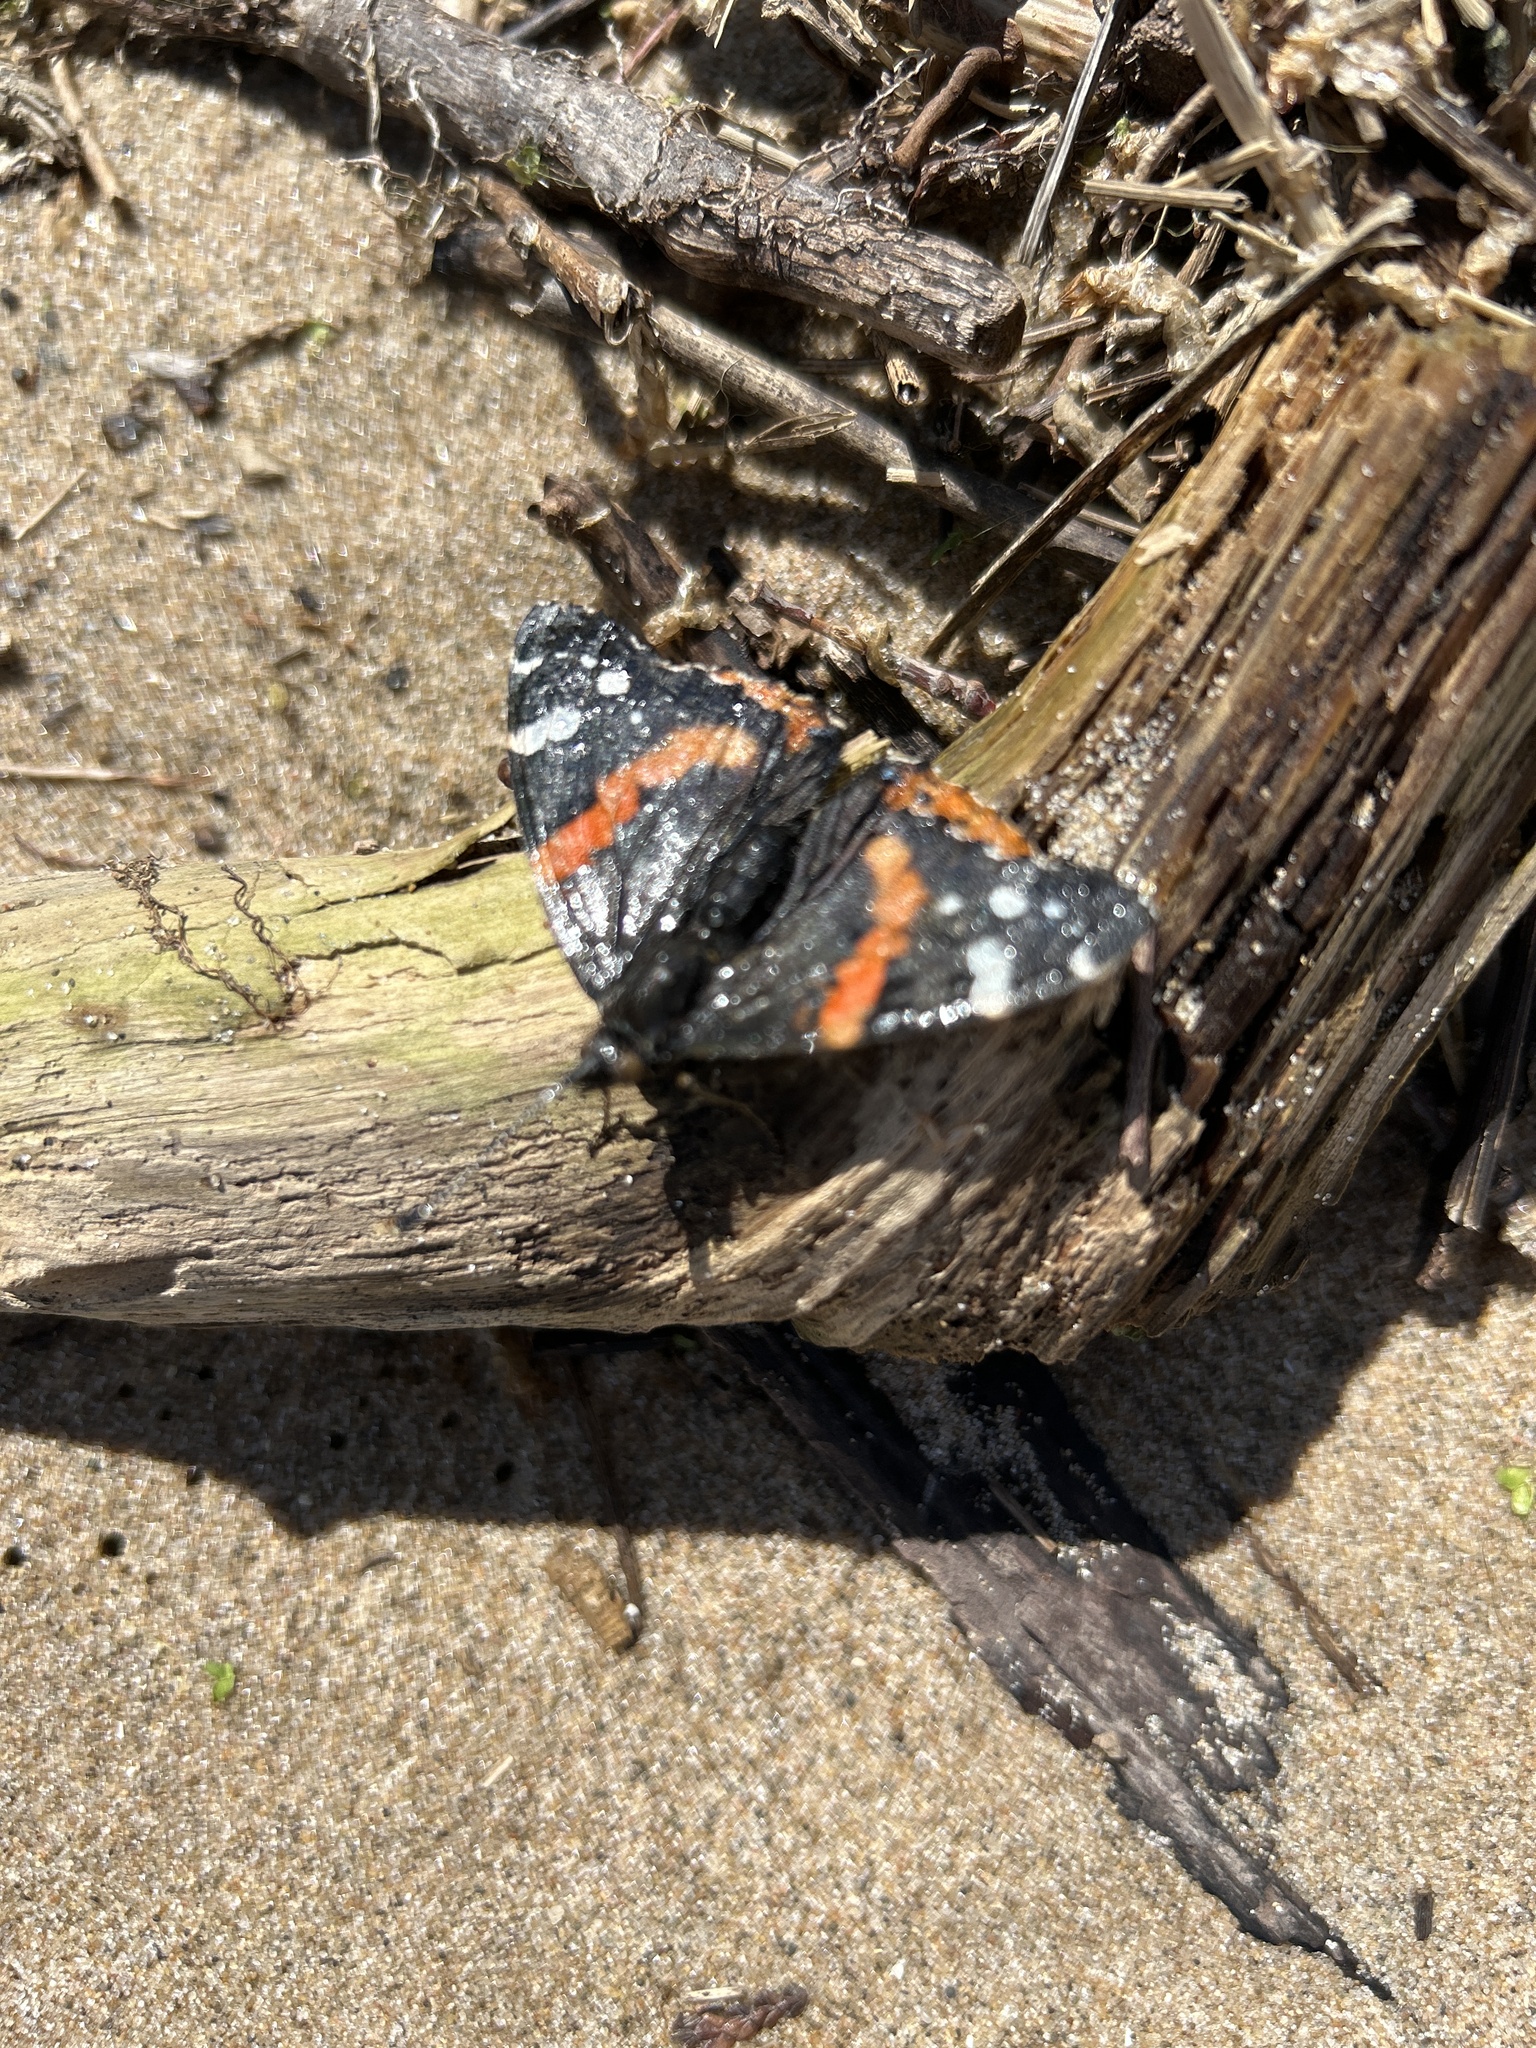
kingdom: Animalia
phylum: Arthropoda
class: Insecta
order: Lepidoptera
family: Nymphalidae
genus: Vanessa
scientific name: Vanessa atalanta
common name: Red admiral
